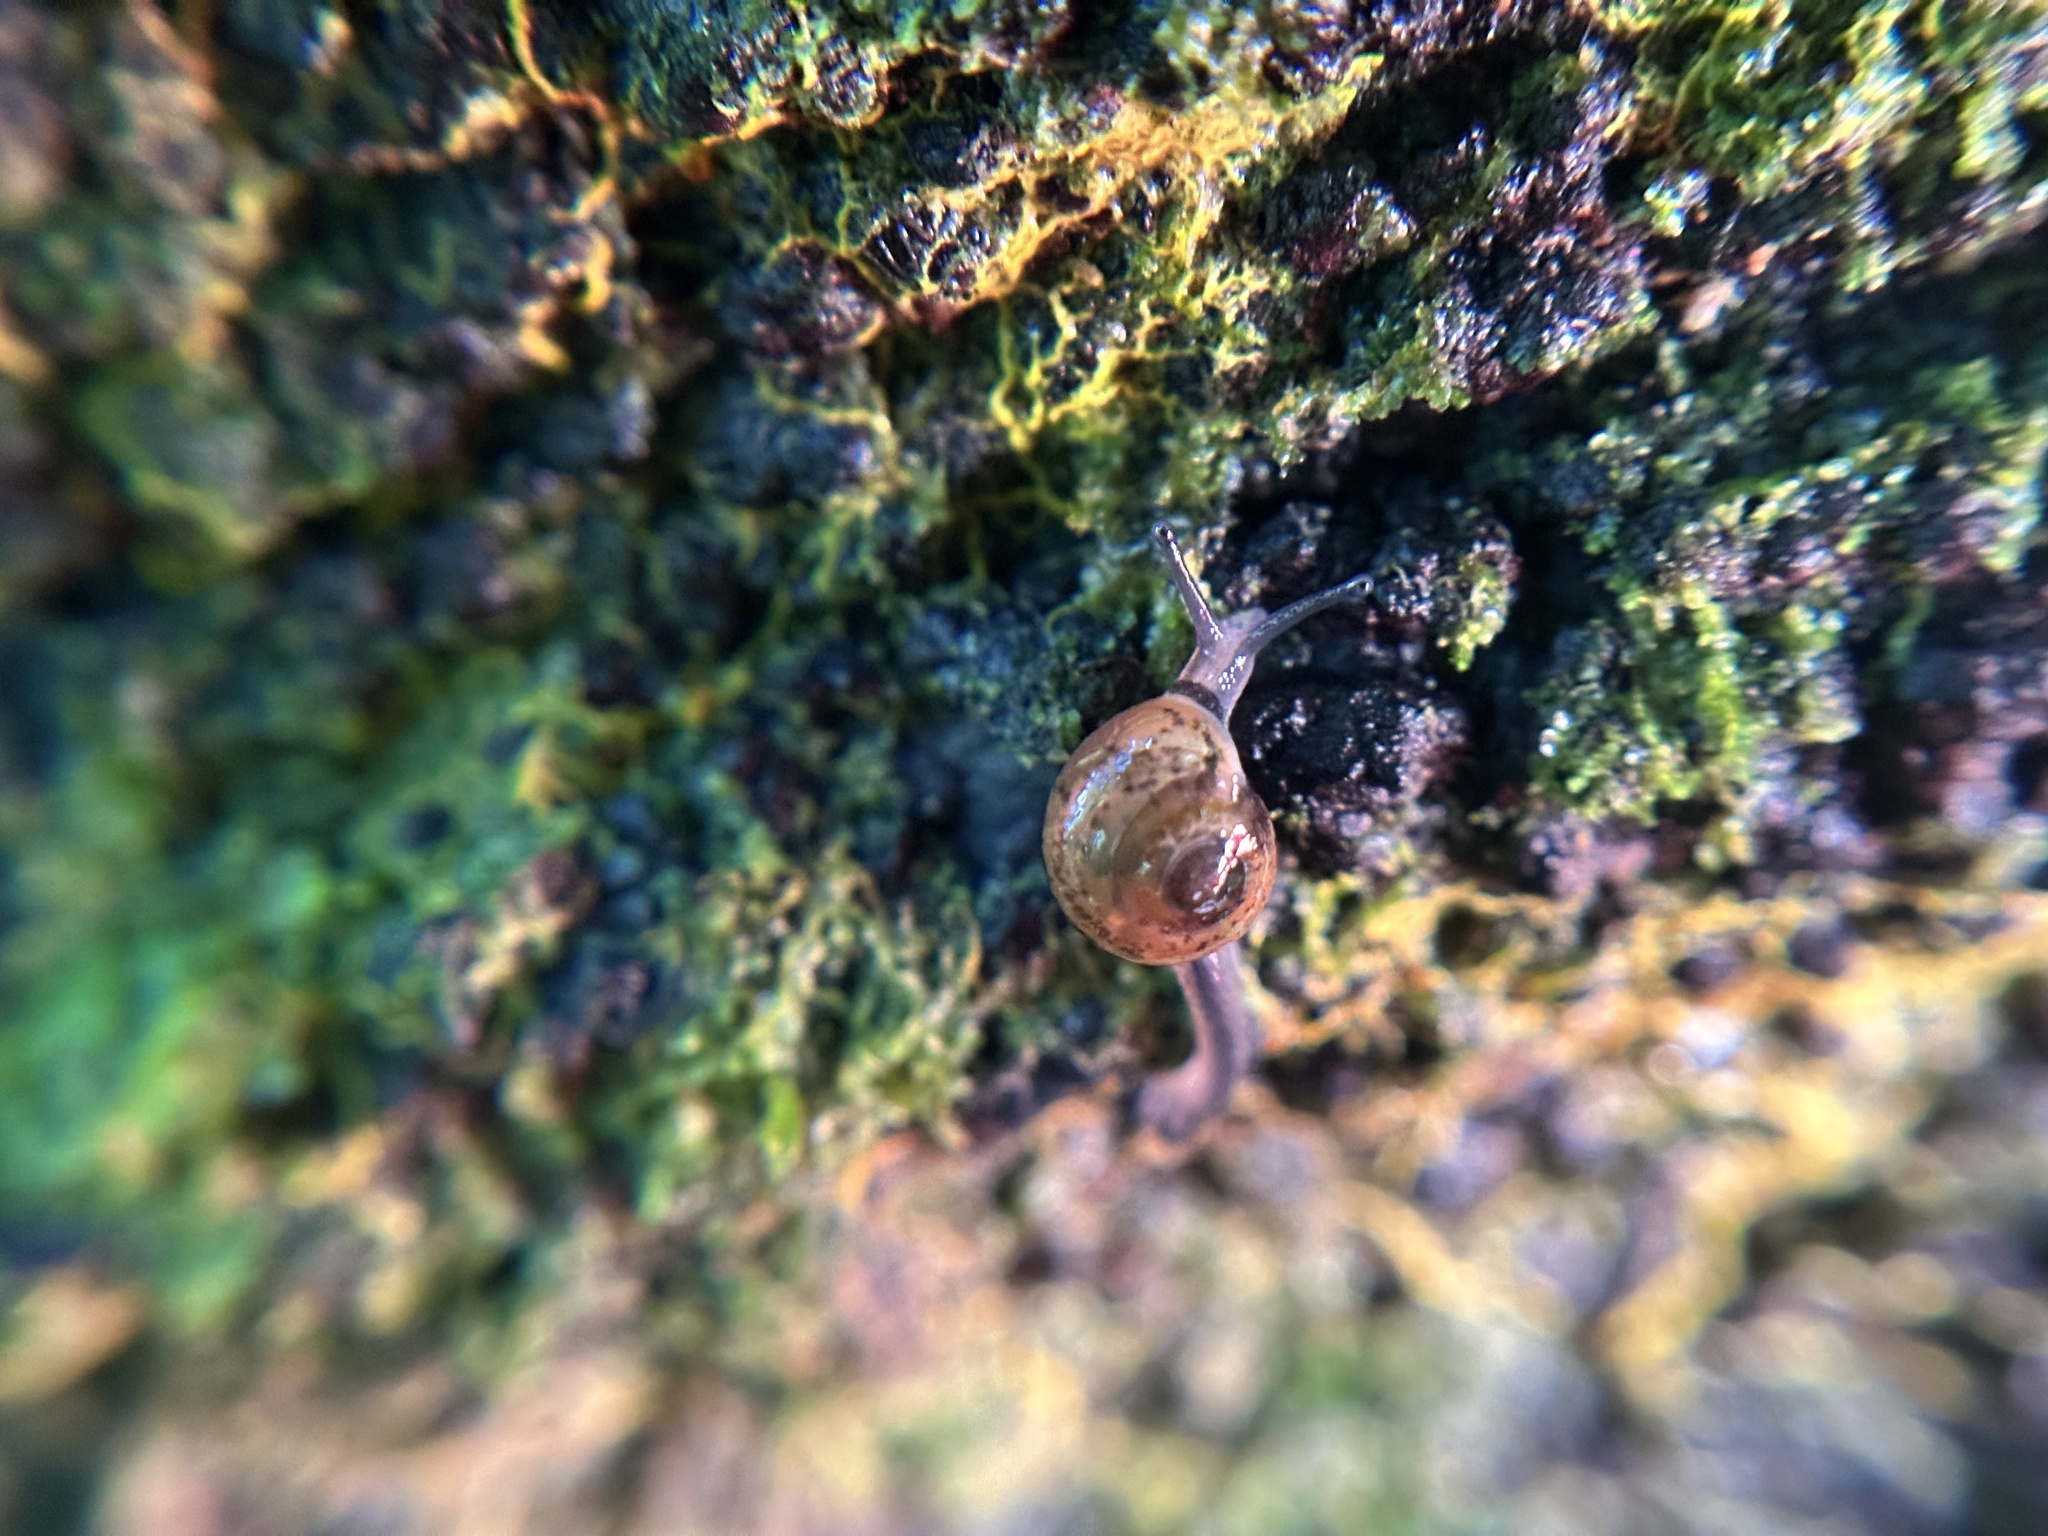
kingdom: Animalia
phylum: Mollusca
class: Gastropoda
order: Stylommatophora
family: Helicarionidae
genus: Ovachlamys
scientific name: Ovachlamys fulgens
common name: Jumping snail
